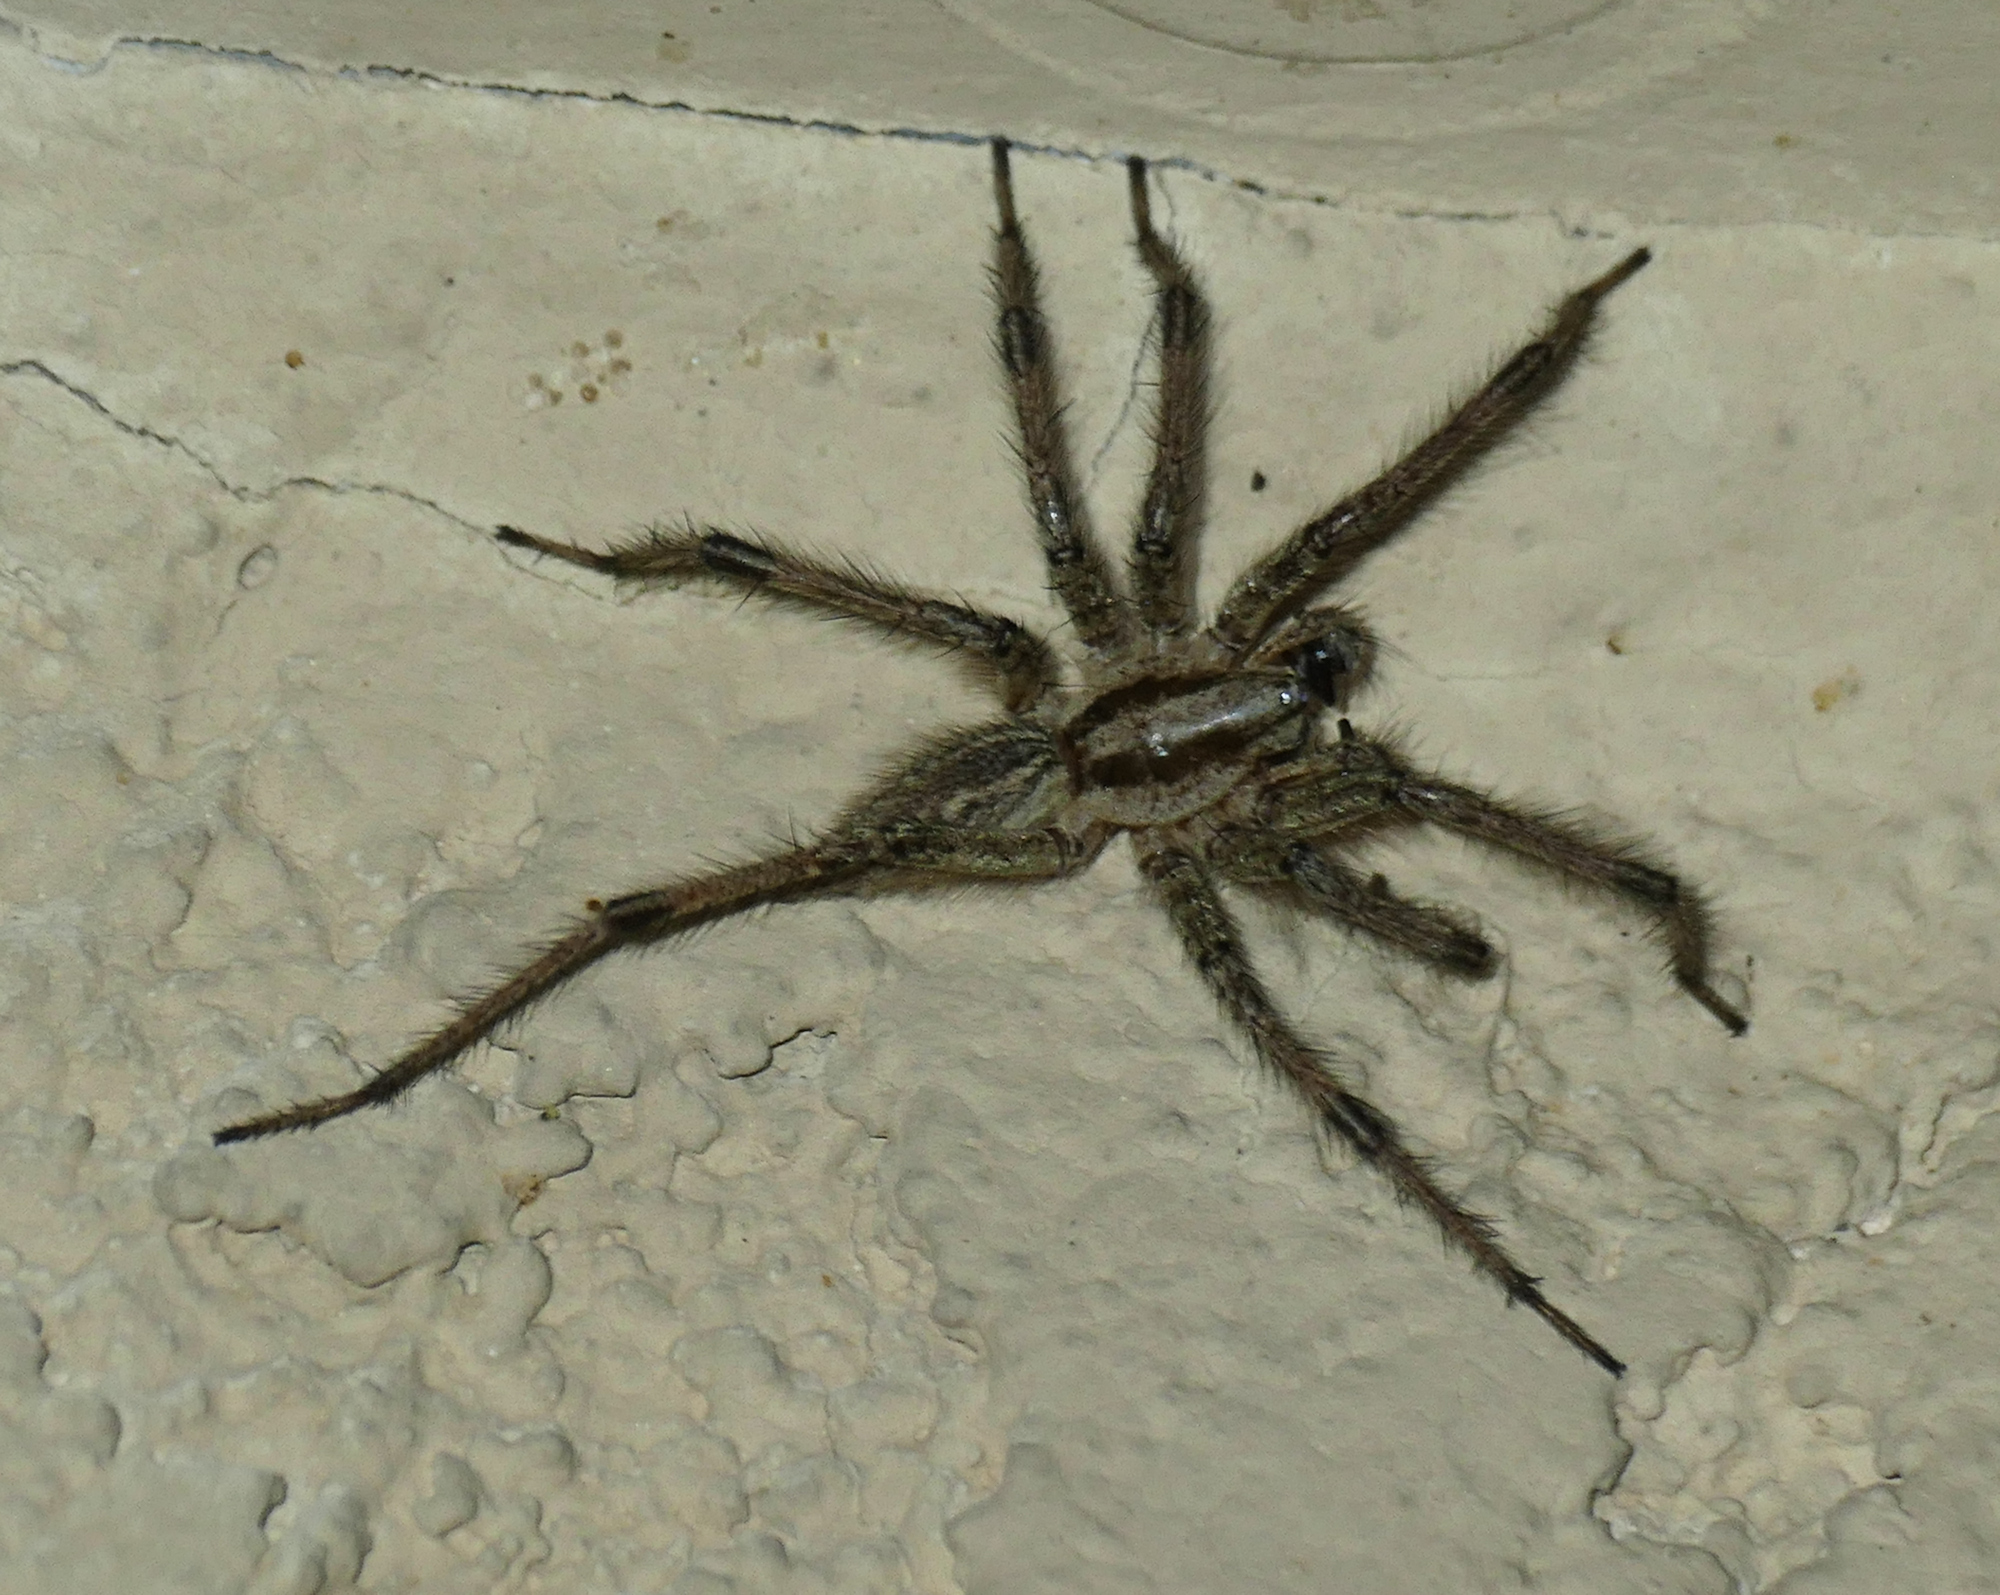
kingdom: Animalia
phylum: Arthropoda
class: Arachnida
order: Araneae
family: Agelenidae
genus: Agelenopsis
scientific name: Agelenopsis aperta
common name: Desert grass spider
